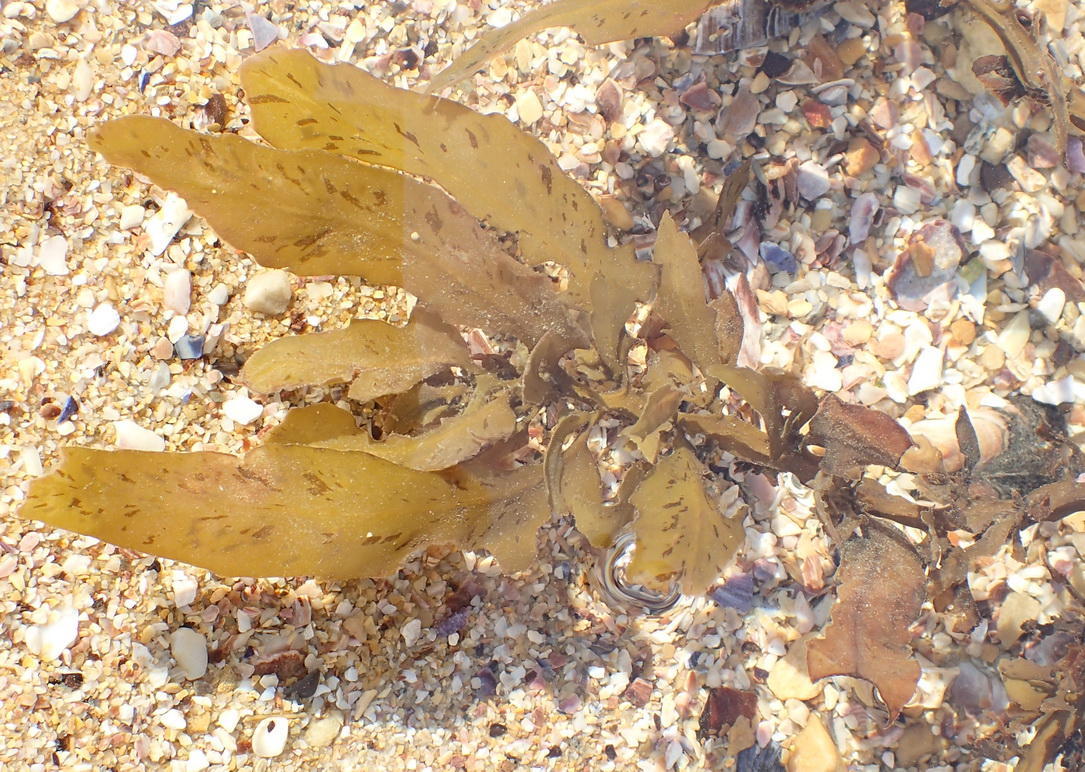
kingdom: Chromista
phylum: Ochrophyta
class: Phaeophyceae
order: Fucales
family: Sargassaceae
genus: Sargassum
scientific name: Sargassum incisifolium
